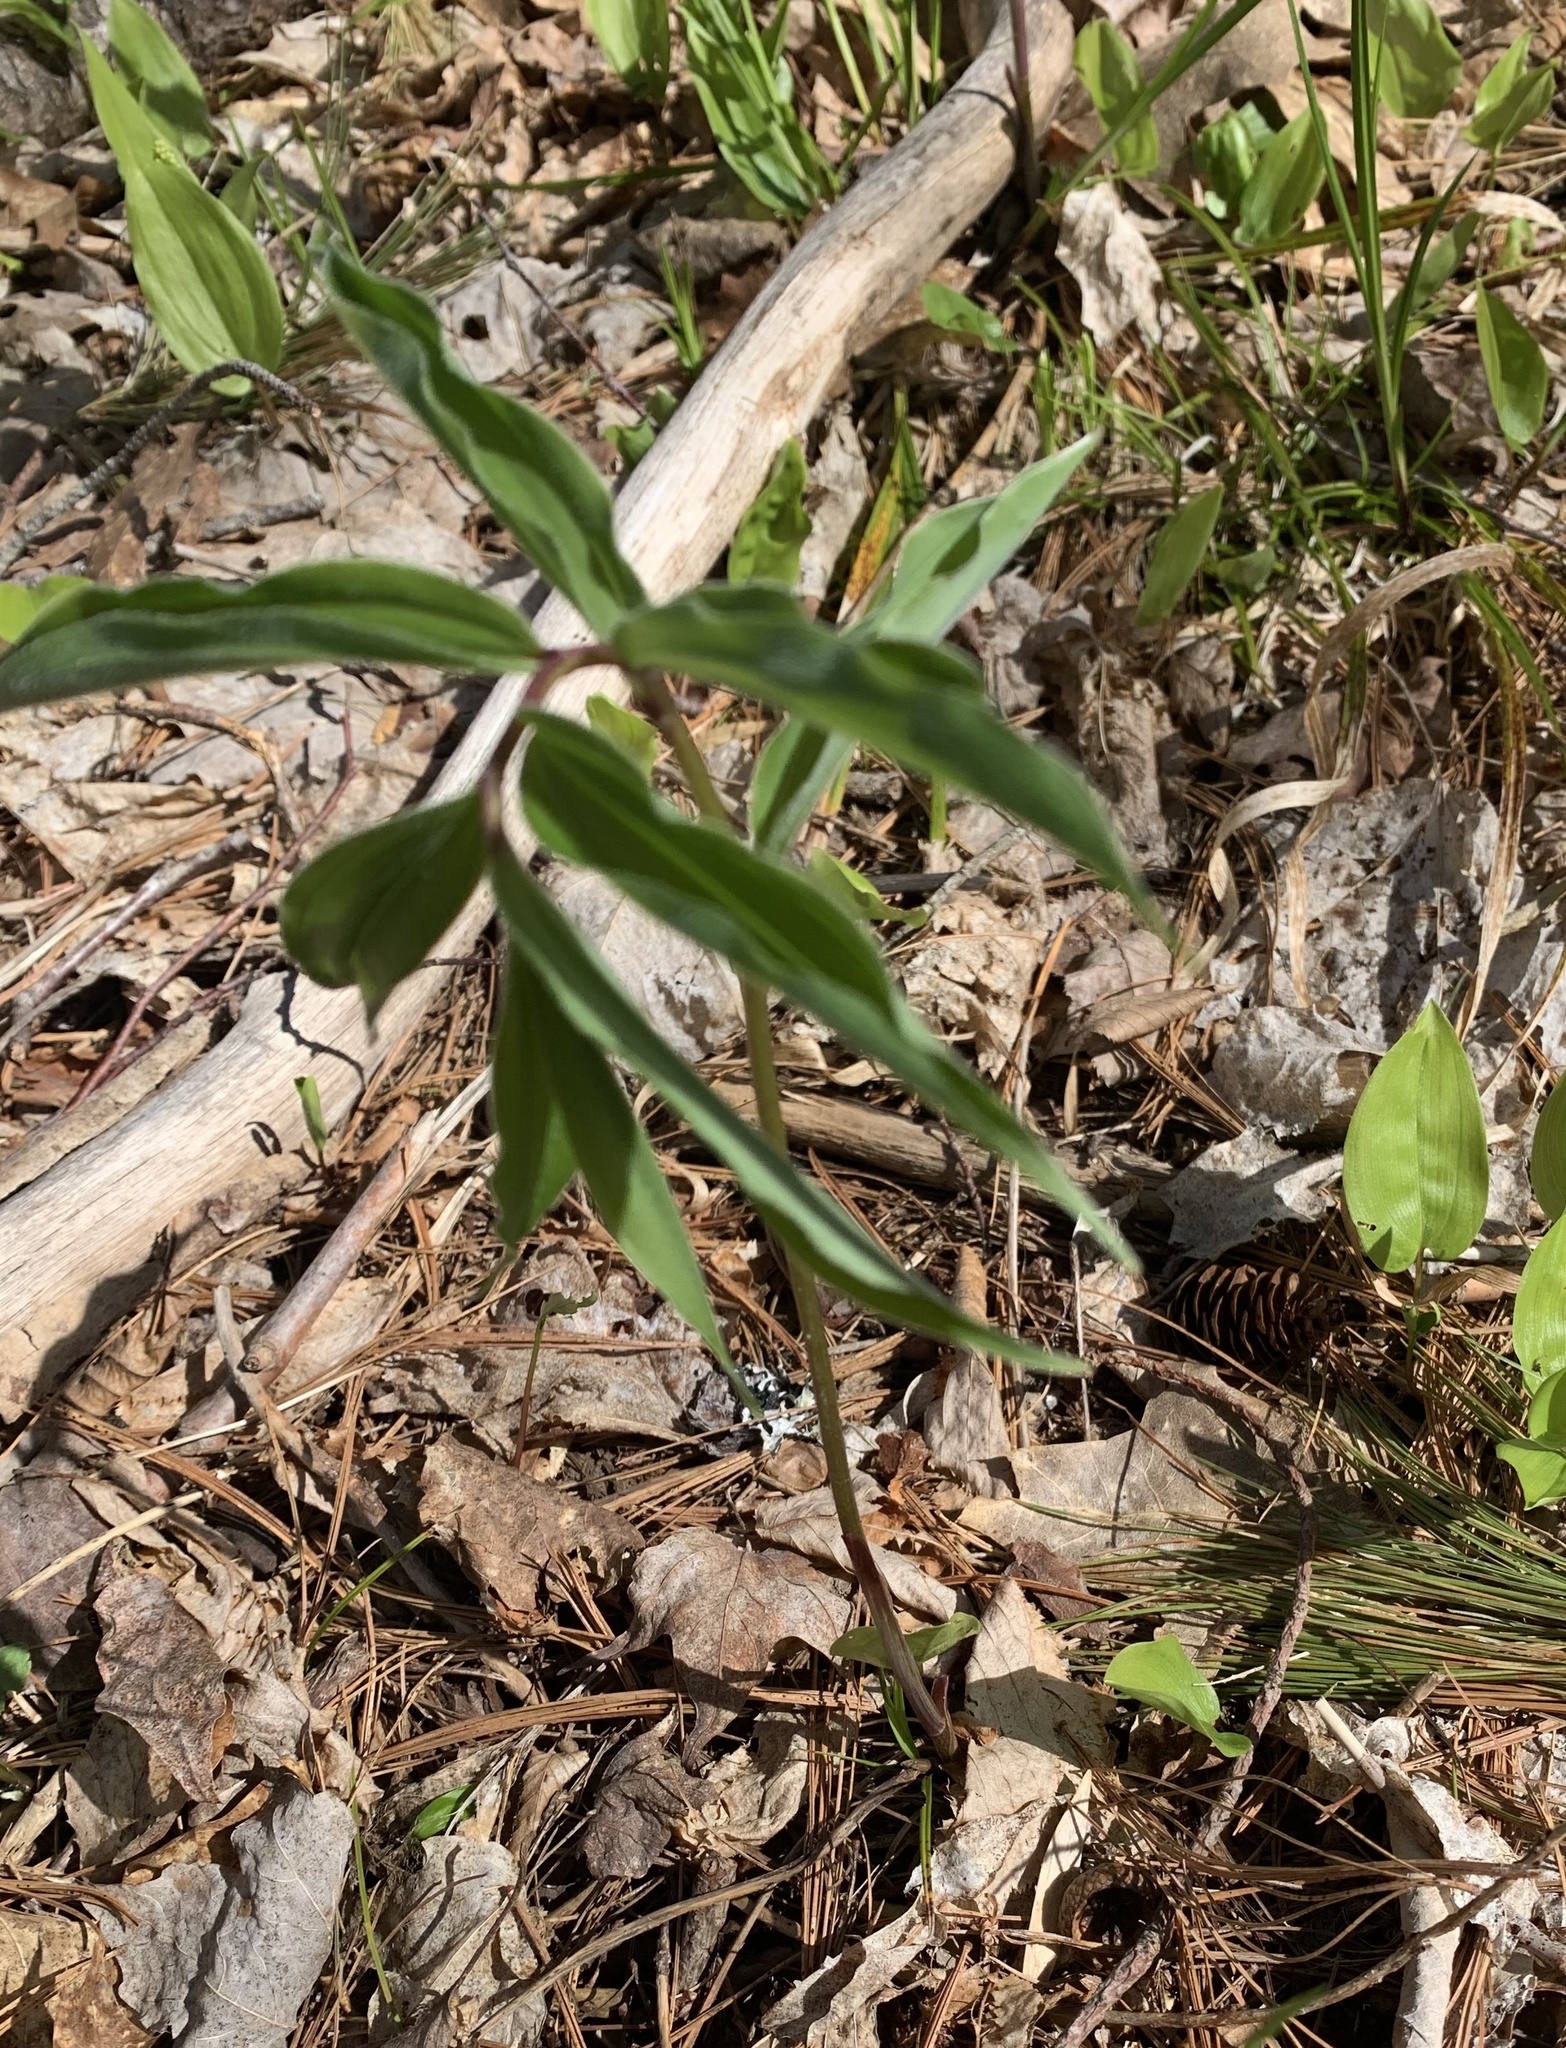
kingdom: Plantae
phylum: Tracheophyta
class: Liliopsida
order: Asparagales
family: Asparagaceae
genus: Maianthemum
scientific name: Maianthemum racemosum
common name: False spikenard
